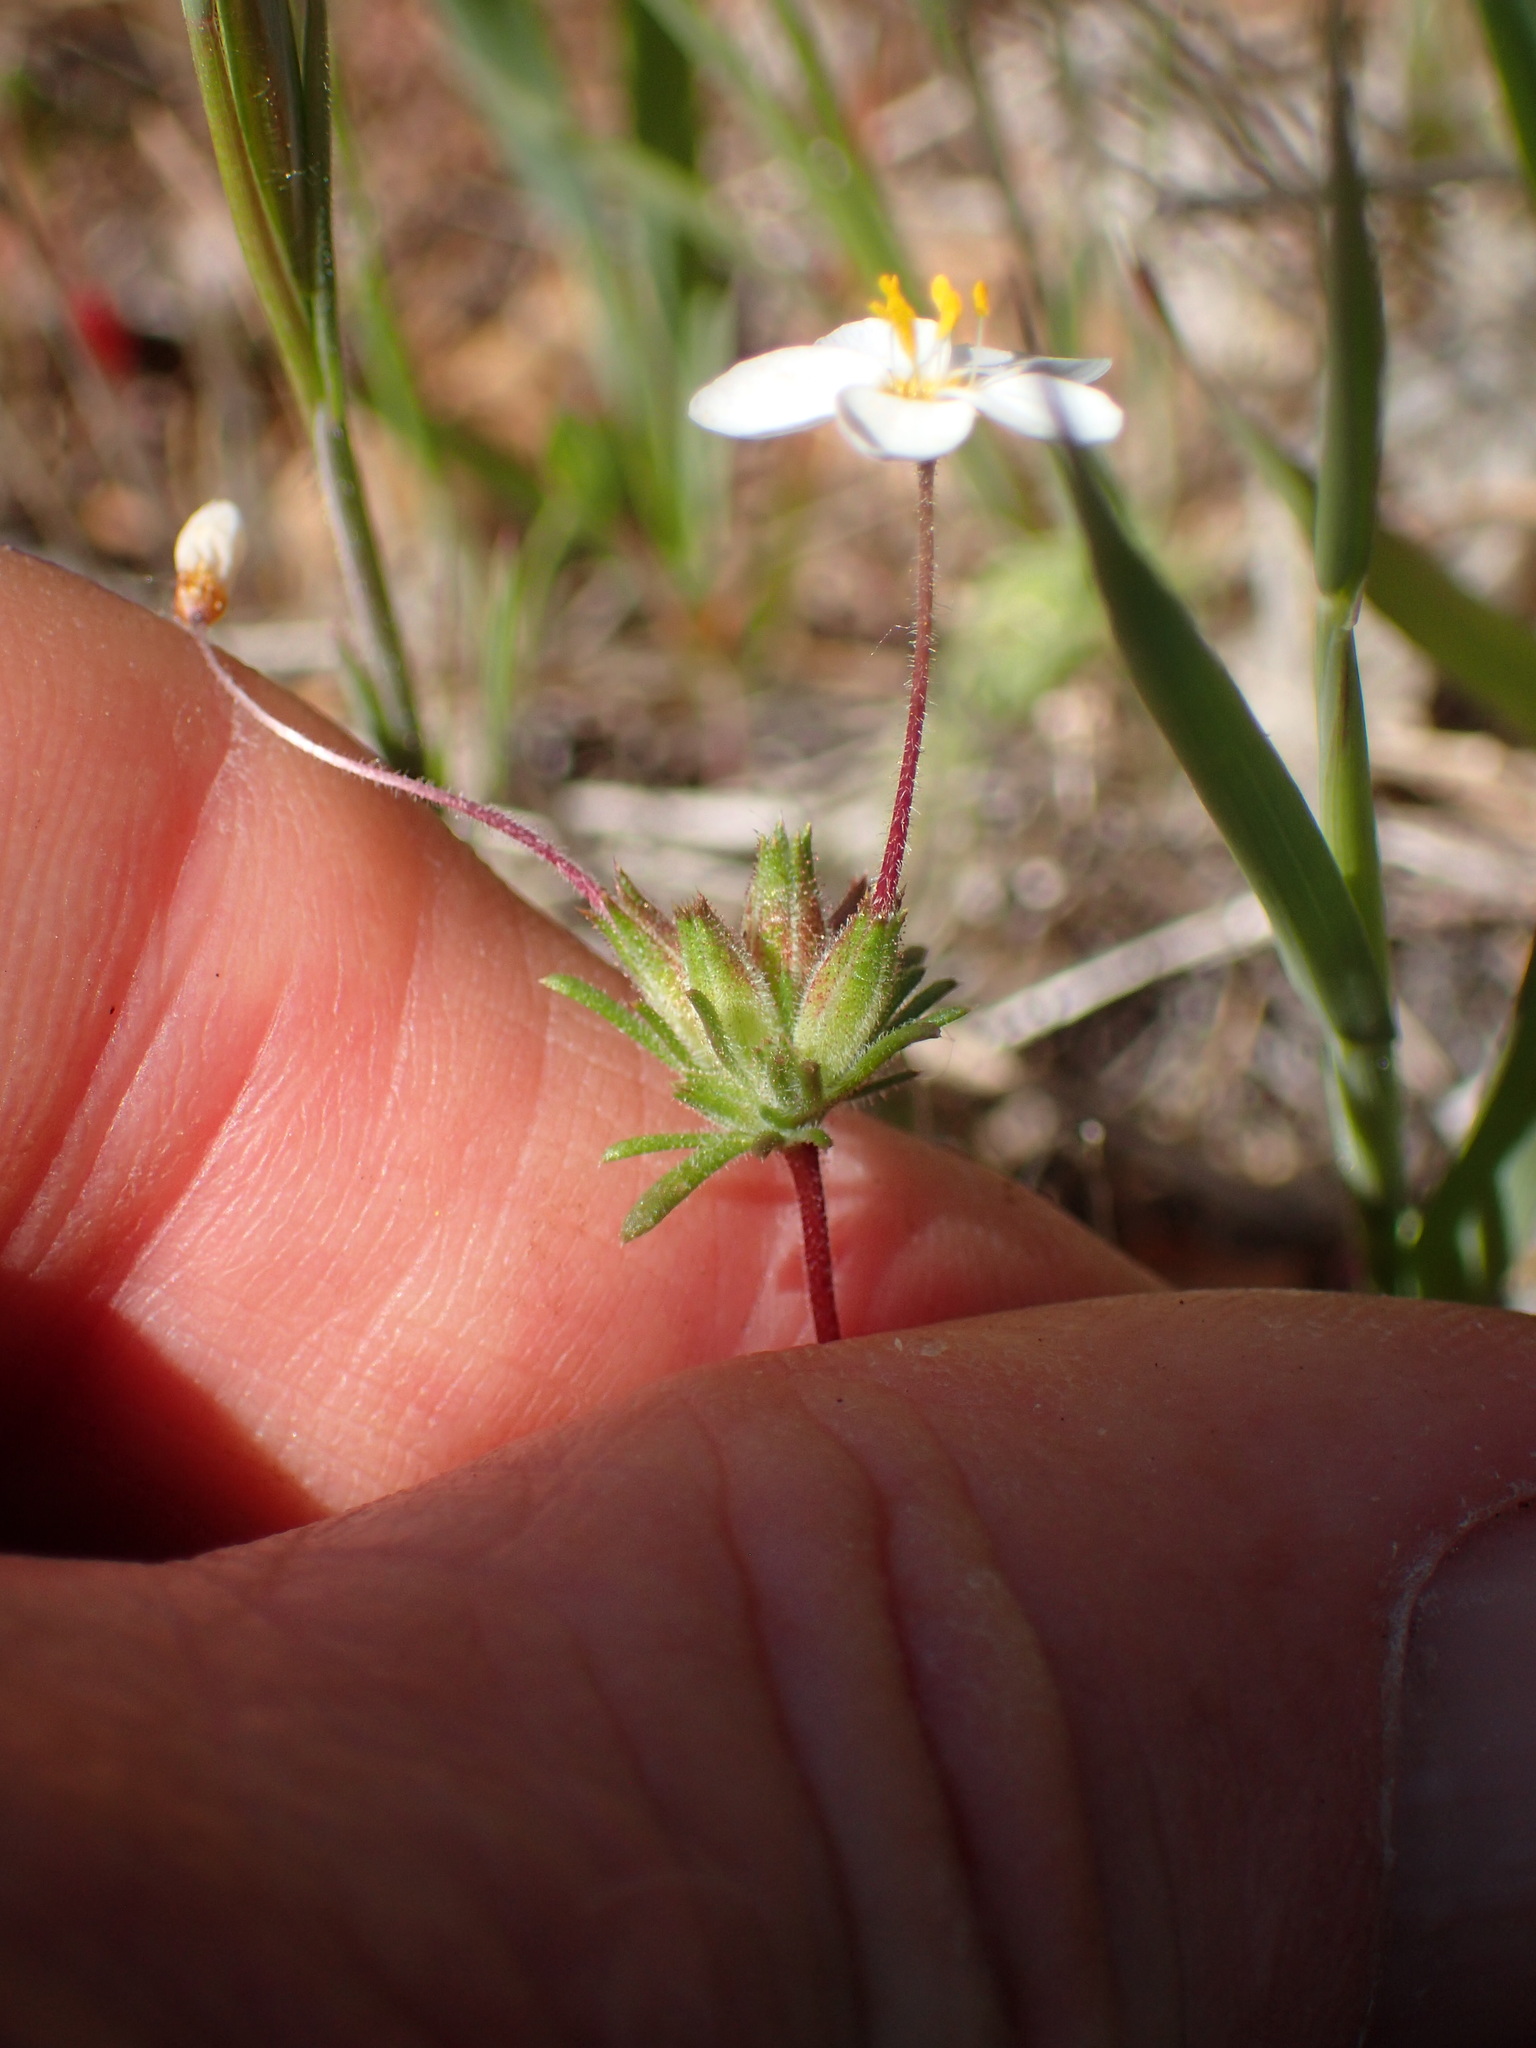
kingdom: Plantae
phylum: Tracheophyta
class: Magnoliopsida
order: Ericales
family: Polemoniaceae
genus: Leptosiphon
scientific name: Leptosiphon parviflorus
